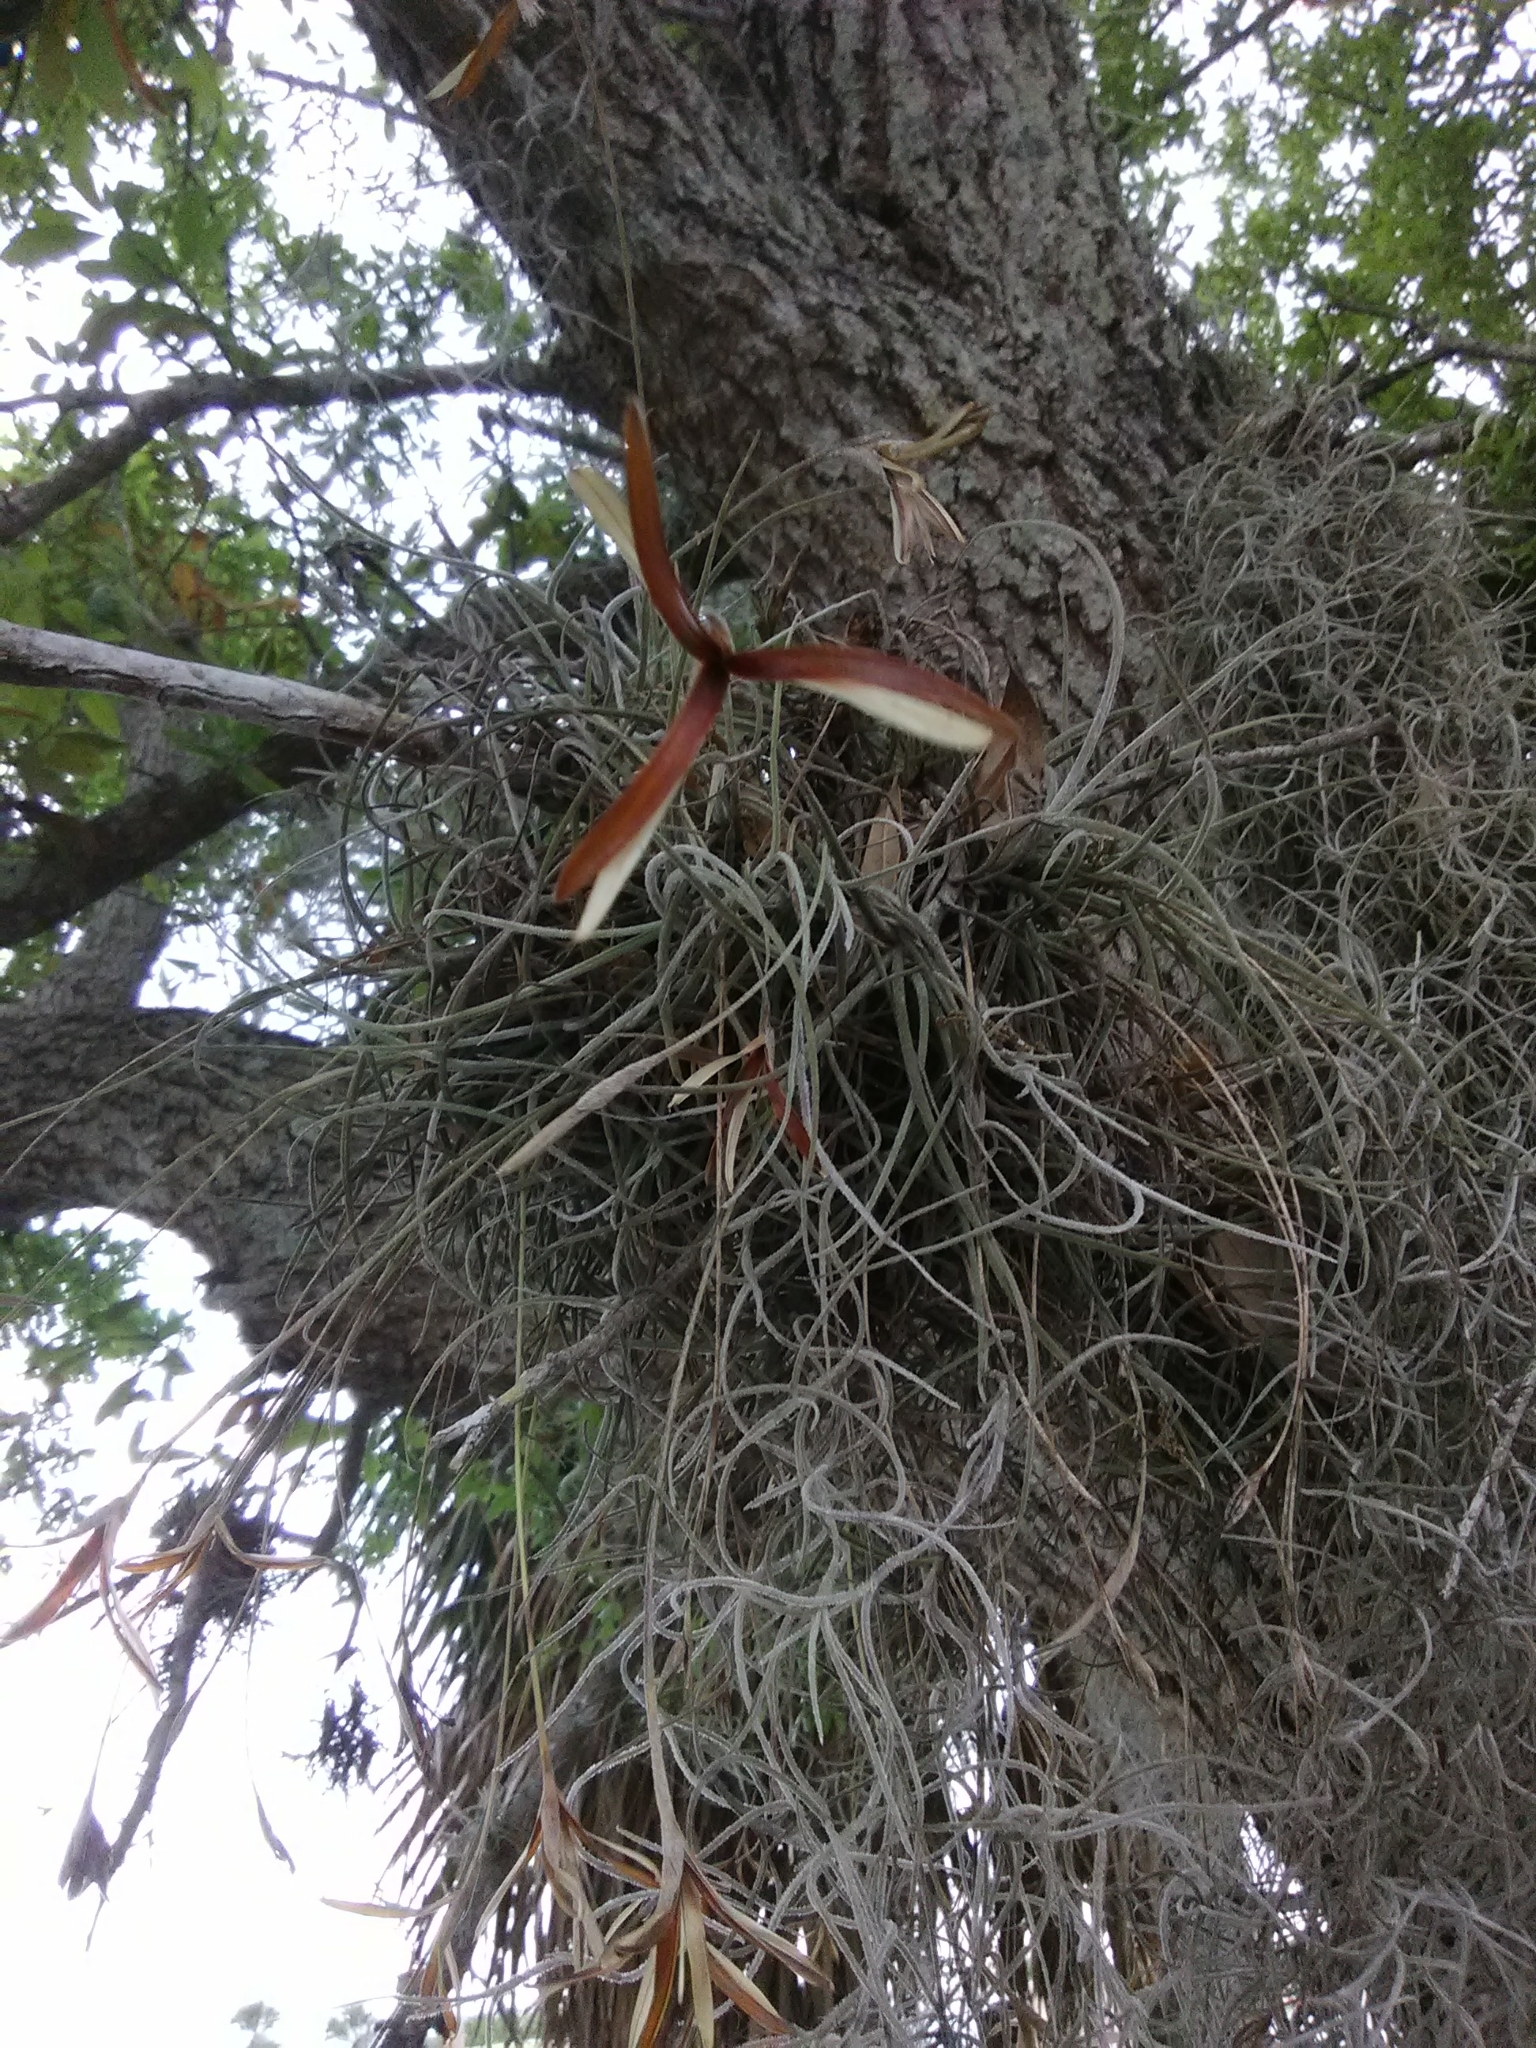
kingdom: Plantae
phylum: Tracheophyta
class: Liliopsida
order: Poales
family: Bromeliaceae
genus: Tillandsia
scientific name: Tillandsia usneoides
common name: Spanish moss
